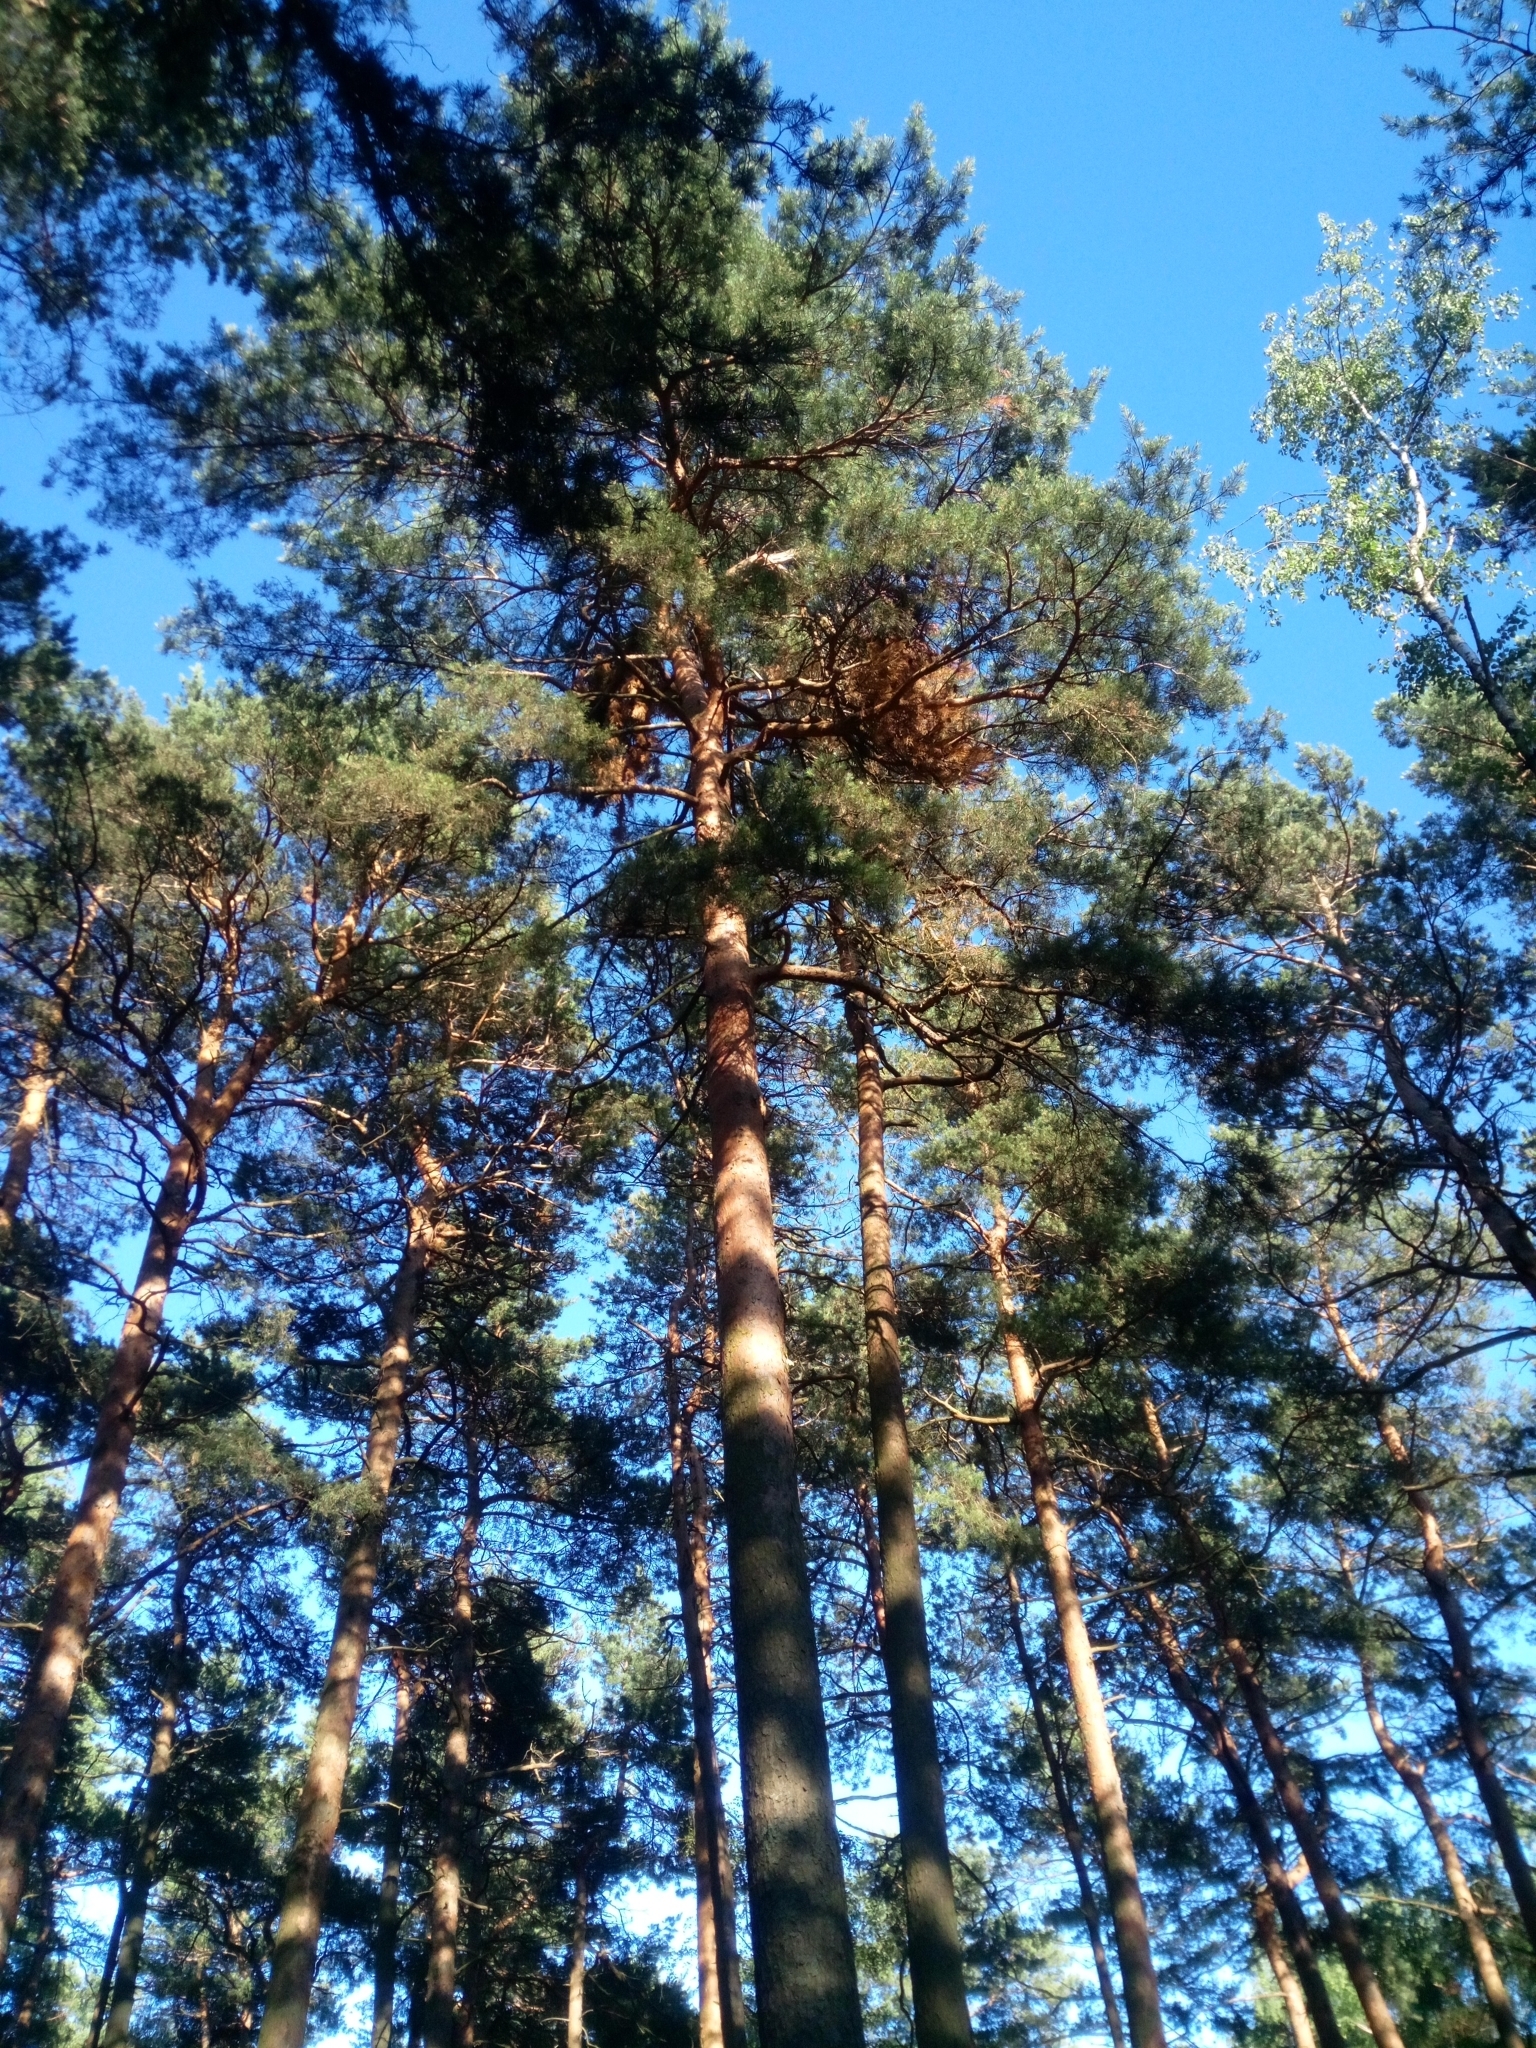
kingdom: Plantae
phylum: Tracheophyta
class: Pinopsida
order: Pinales
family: Pinaceae
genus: Pinus
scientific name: Pinus sylvestris
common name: Scots pine
